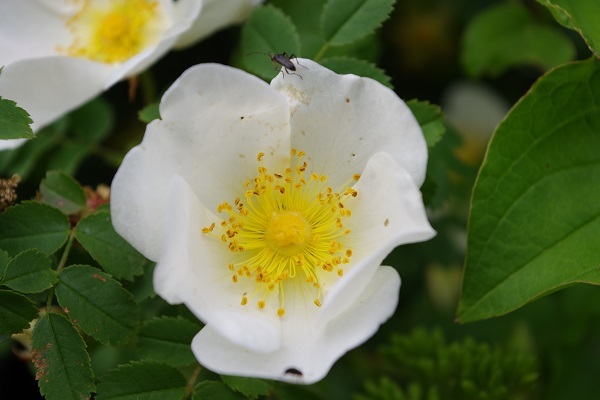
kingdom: Animalia
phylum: Arthropoda
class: Insecta
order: Coleoptera
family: Cerambycidae
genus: Grammoptera
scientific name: Grammoptera ruficornis
